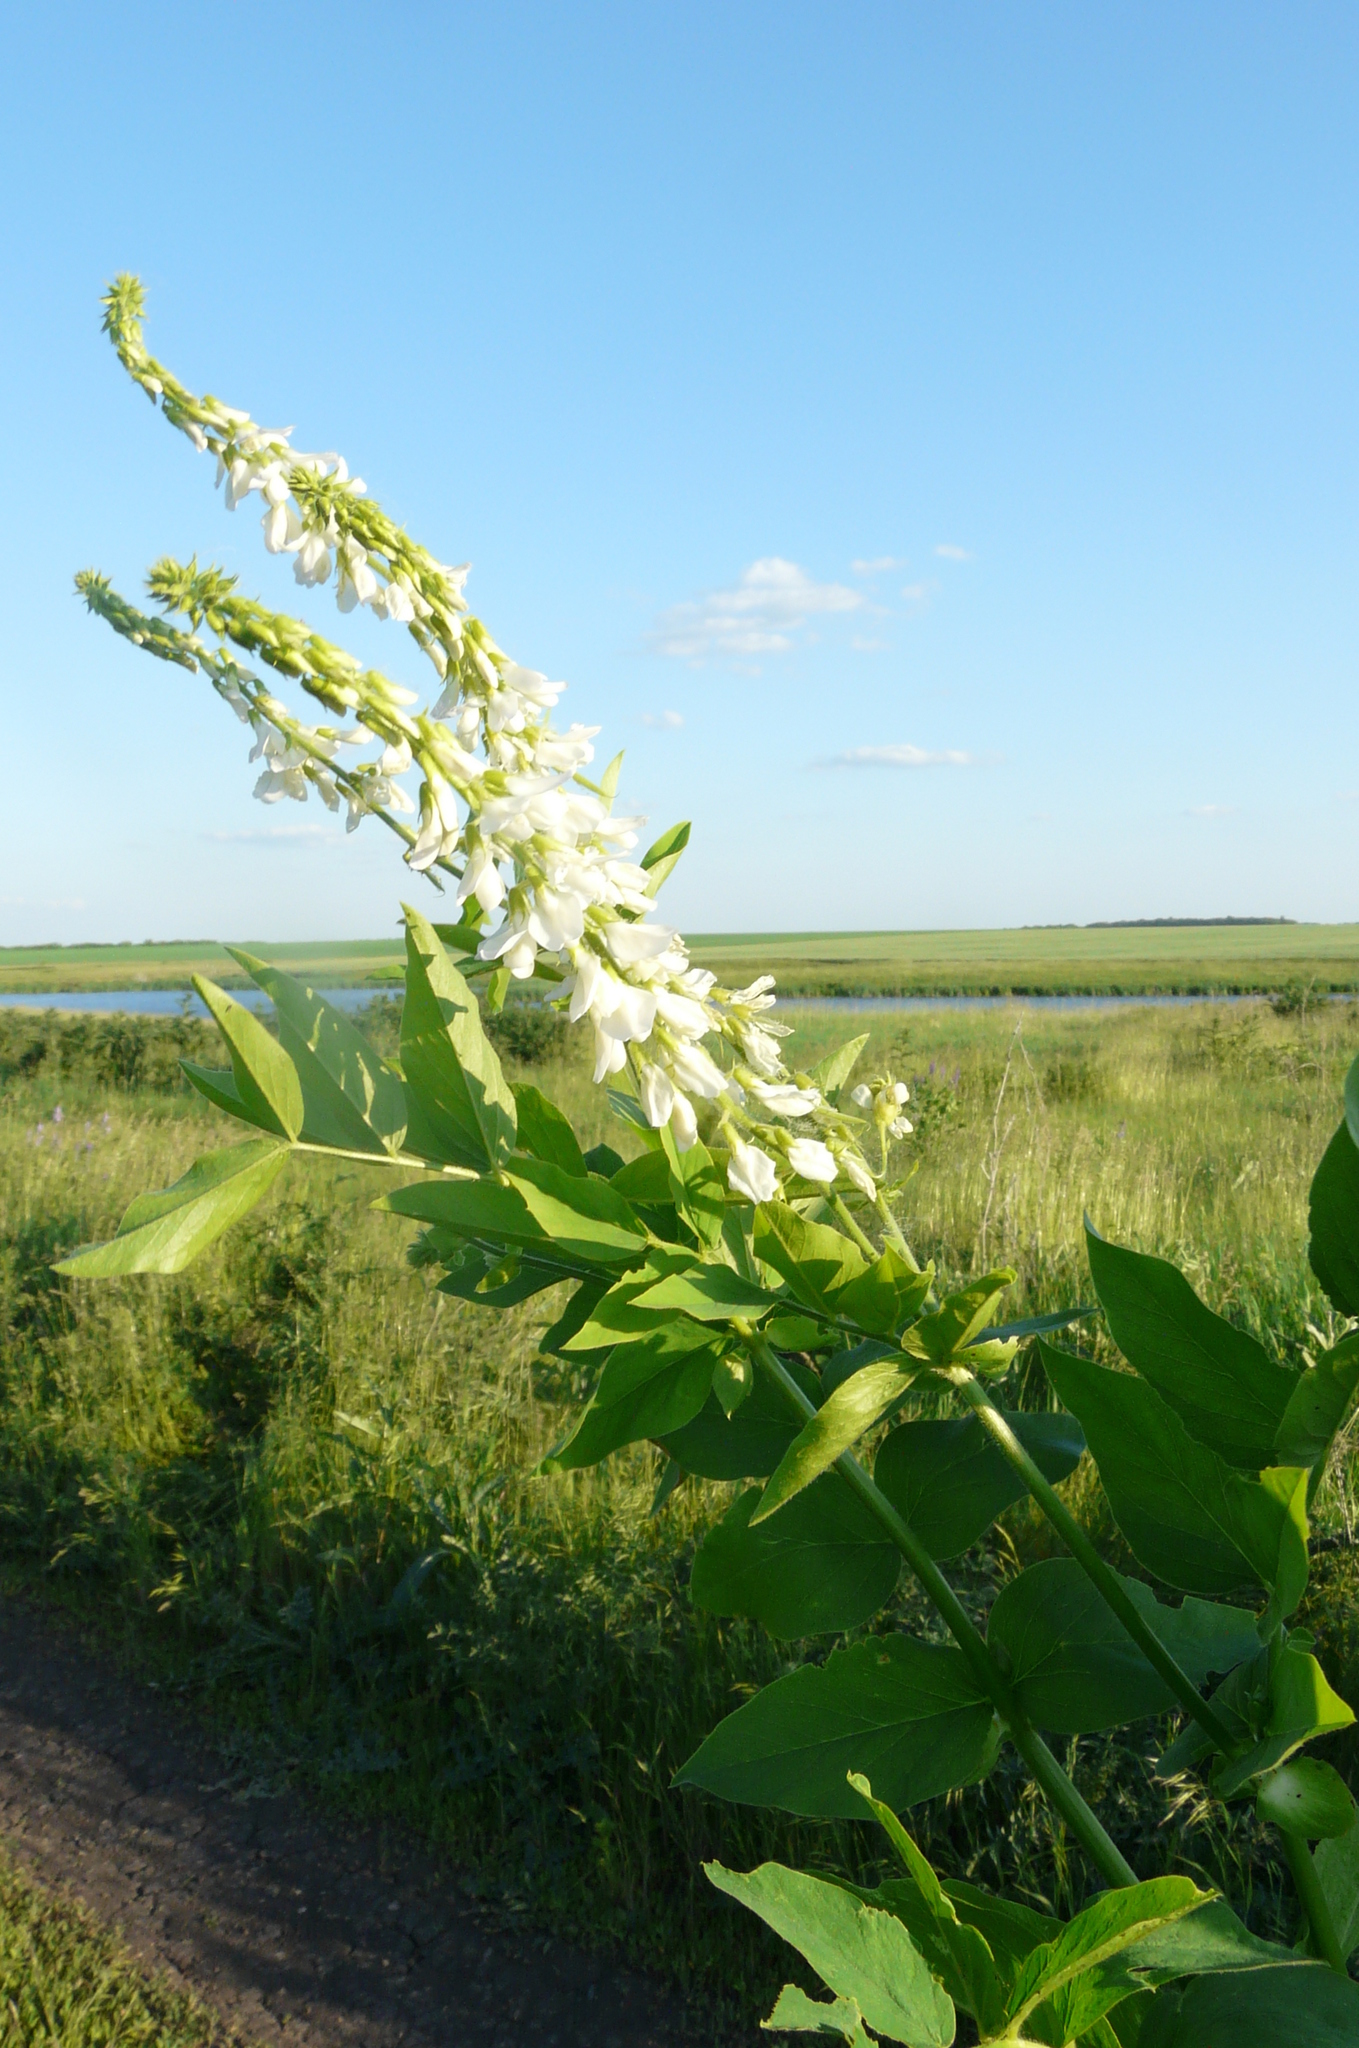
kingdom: Plantae
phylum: Tracheophyta
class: Magnoliopsida
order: Fabales
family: Fabaceae
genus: Galega
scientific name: Galega orientalis
